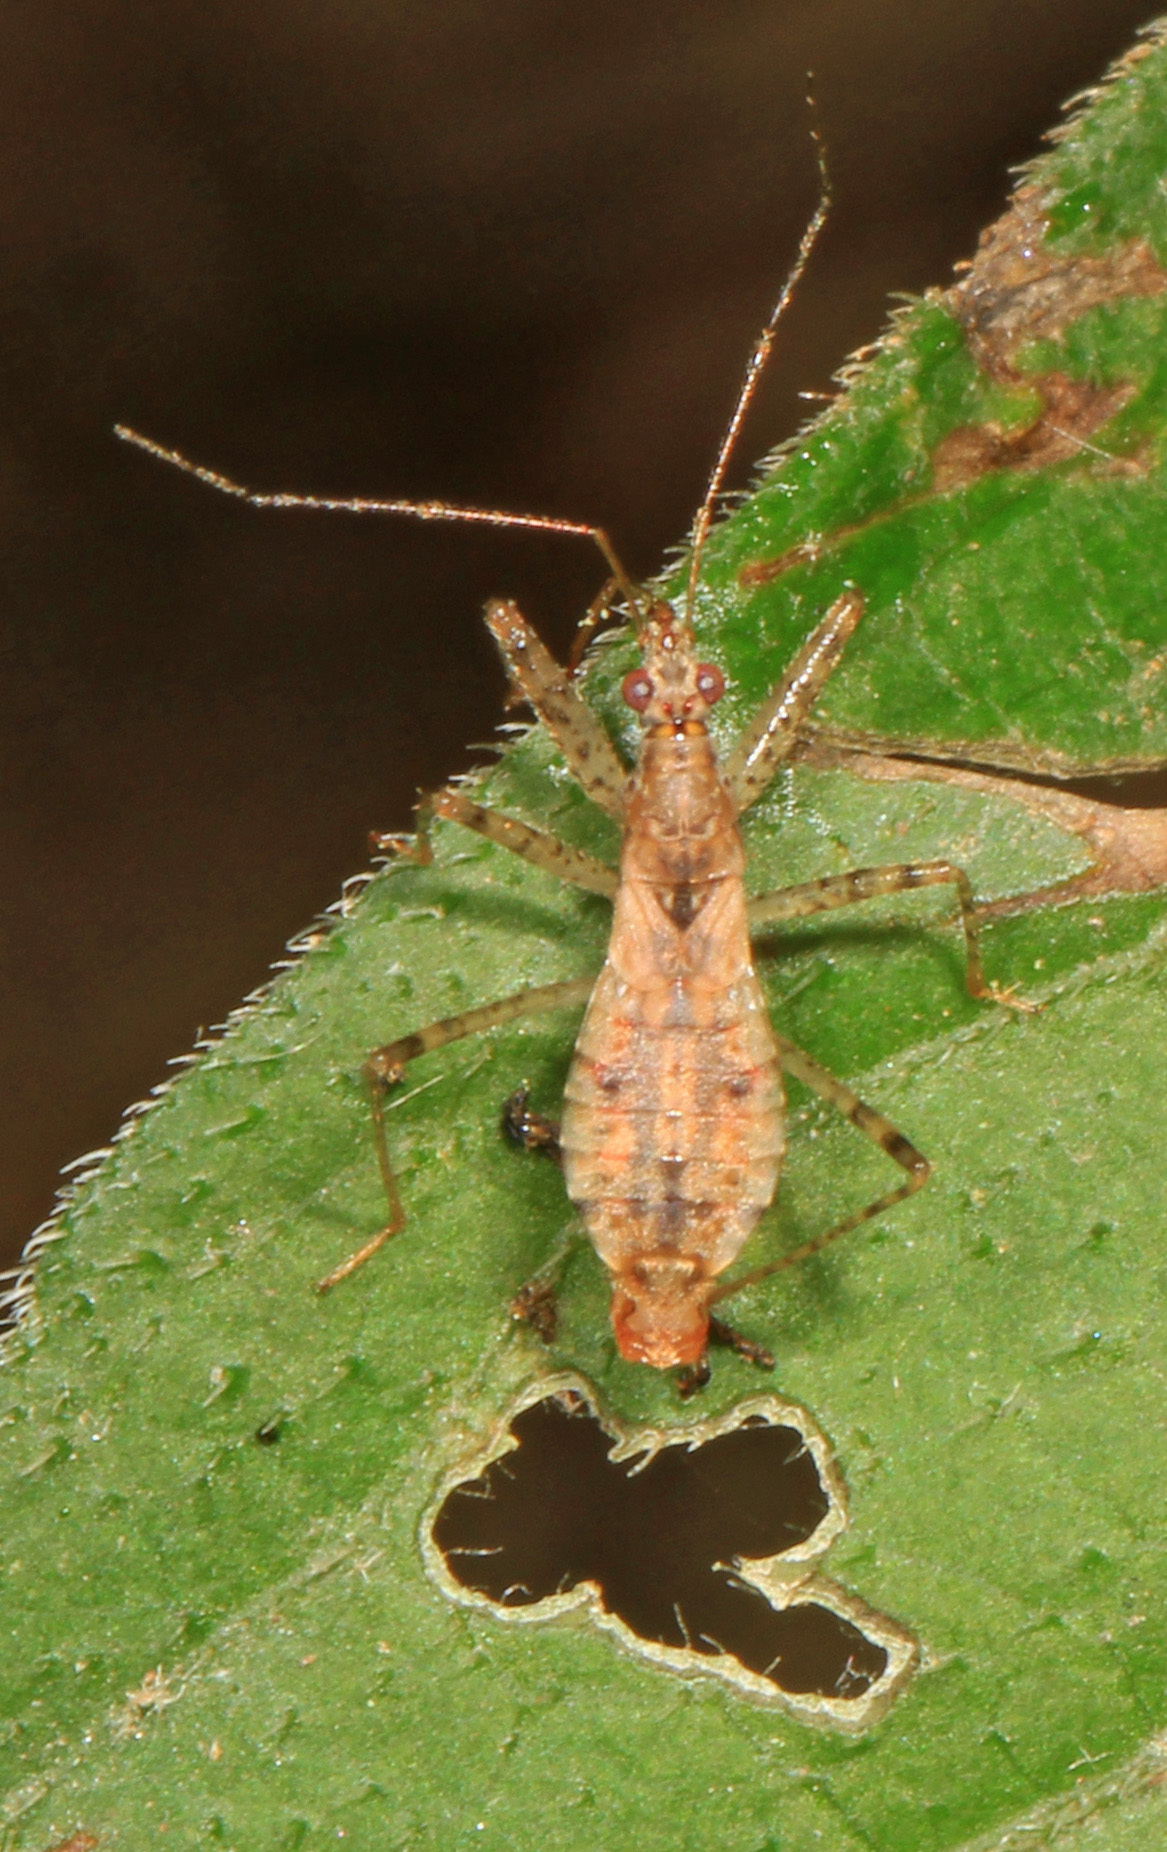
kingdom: Animalia
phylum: Arthropoda
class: Insecta
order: Hemiptera
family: Nabidae
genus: Hoplistoscelis
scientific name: Hoplistoscelis pallescens
